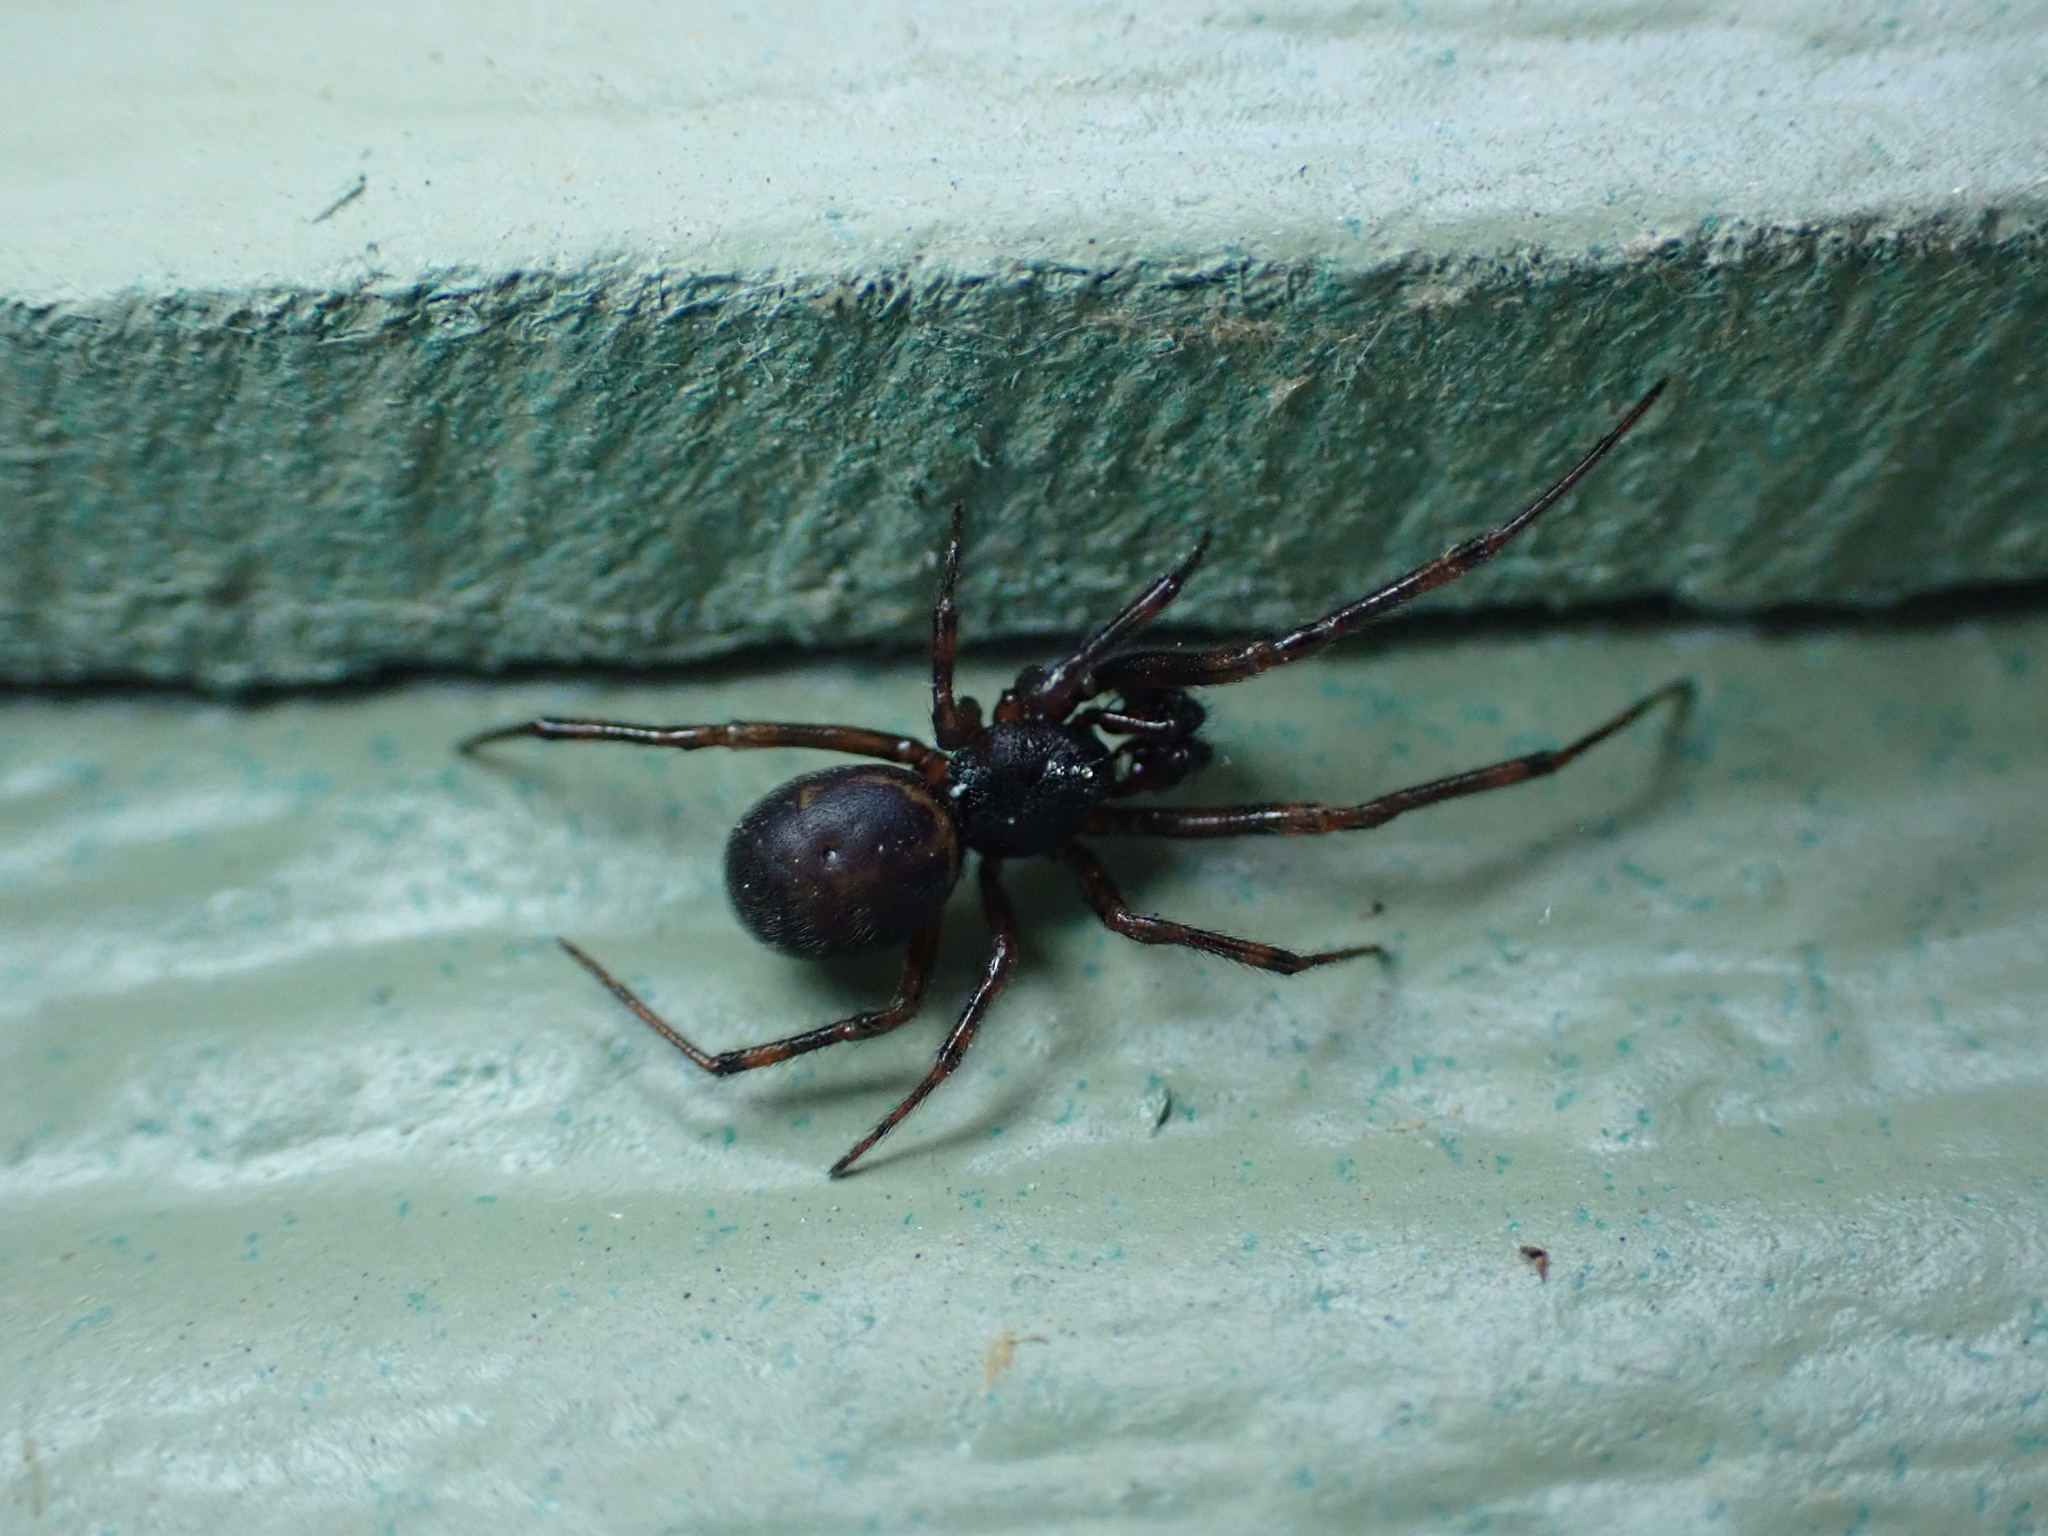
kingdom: Animalia
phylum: Arthropoda
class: Arachnida
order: Araneae
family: Theridiidae
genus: Steatoda
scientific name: Steatoda borealis
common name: Boreal combfoot
